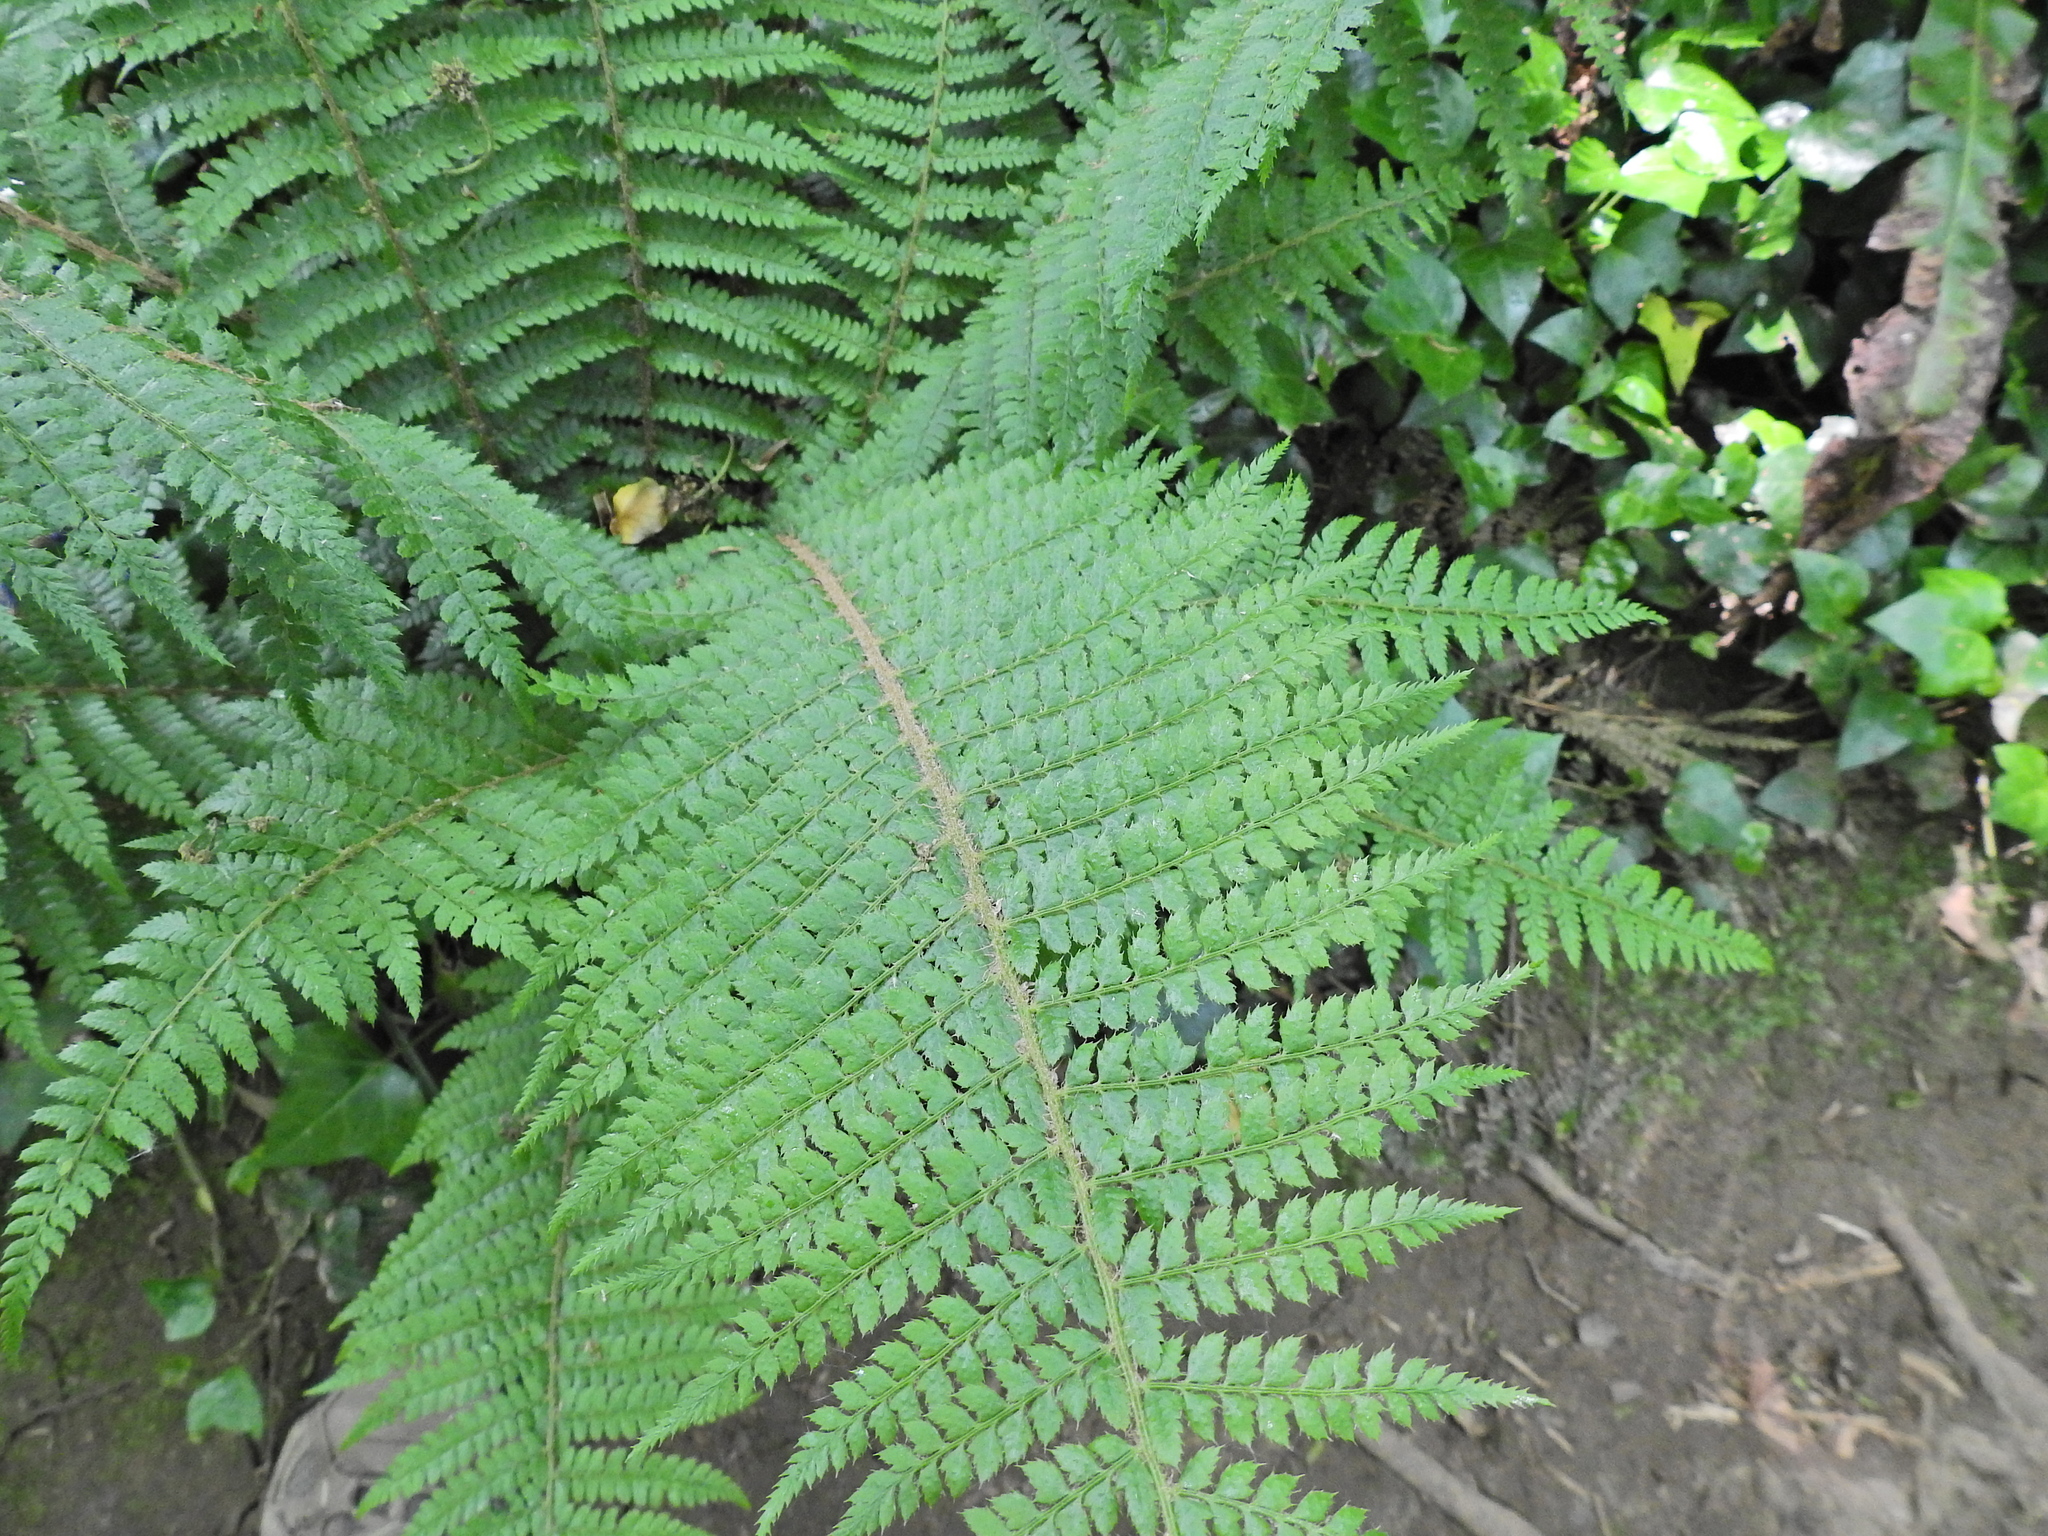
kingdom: Plantae
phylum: Tracheophyta
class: Polypodiopsida
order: Polypodiales
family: Dryopteridaceae
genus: Polystichum
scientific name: Polystichum setiferum
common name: Soft shield-fern
